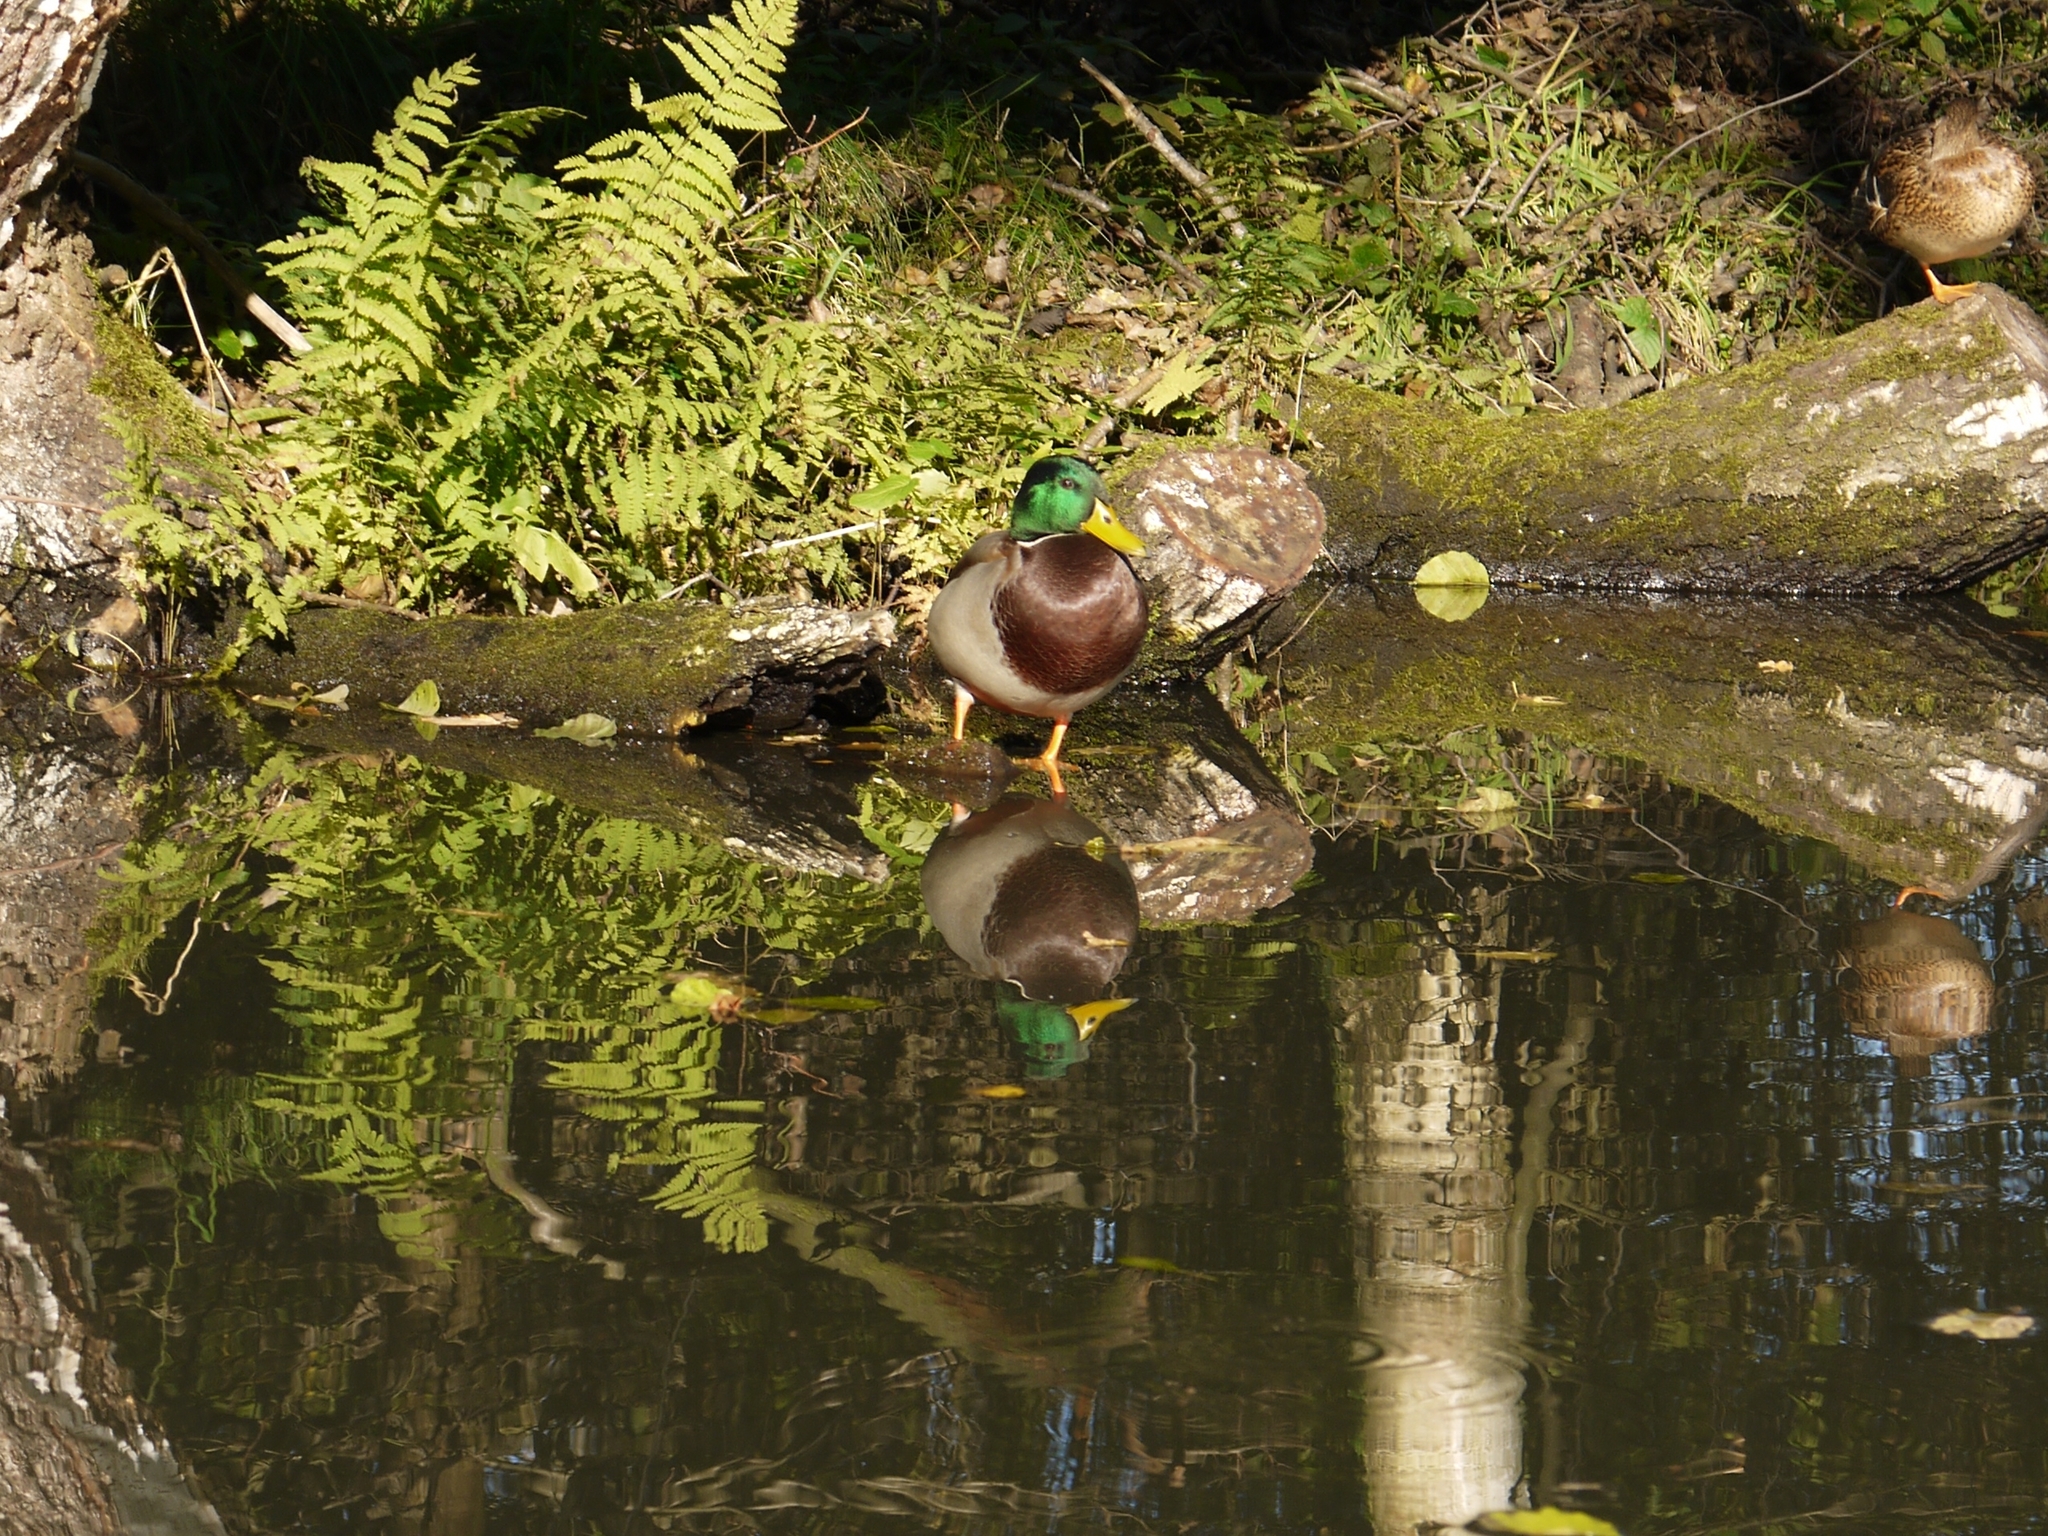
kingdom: Animalia
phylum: Chordata
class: Aves
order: Anseriformes
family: Anatidae
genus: Anas
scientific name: Anas platyrhynchos
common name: Mallard
